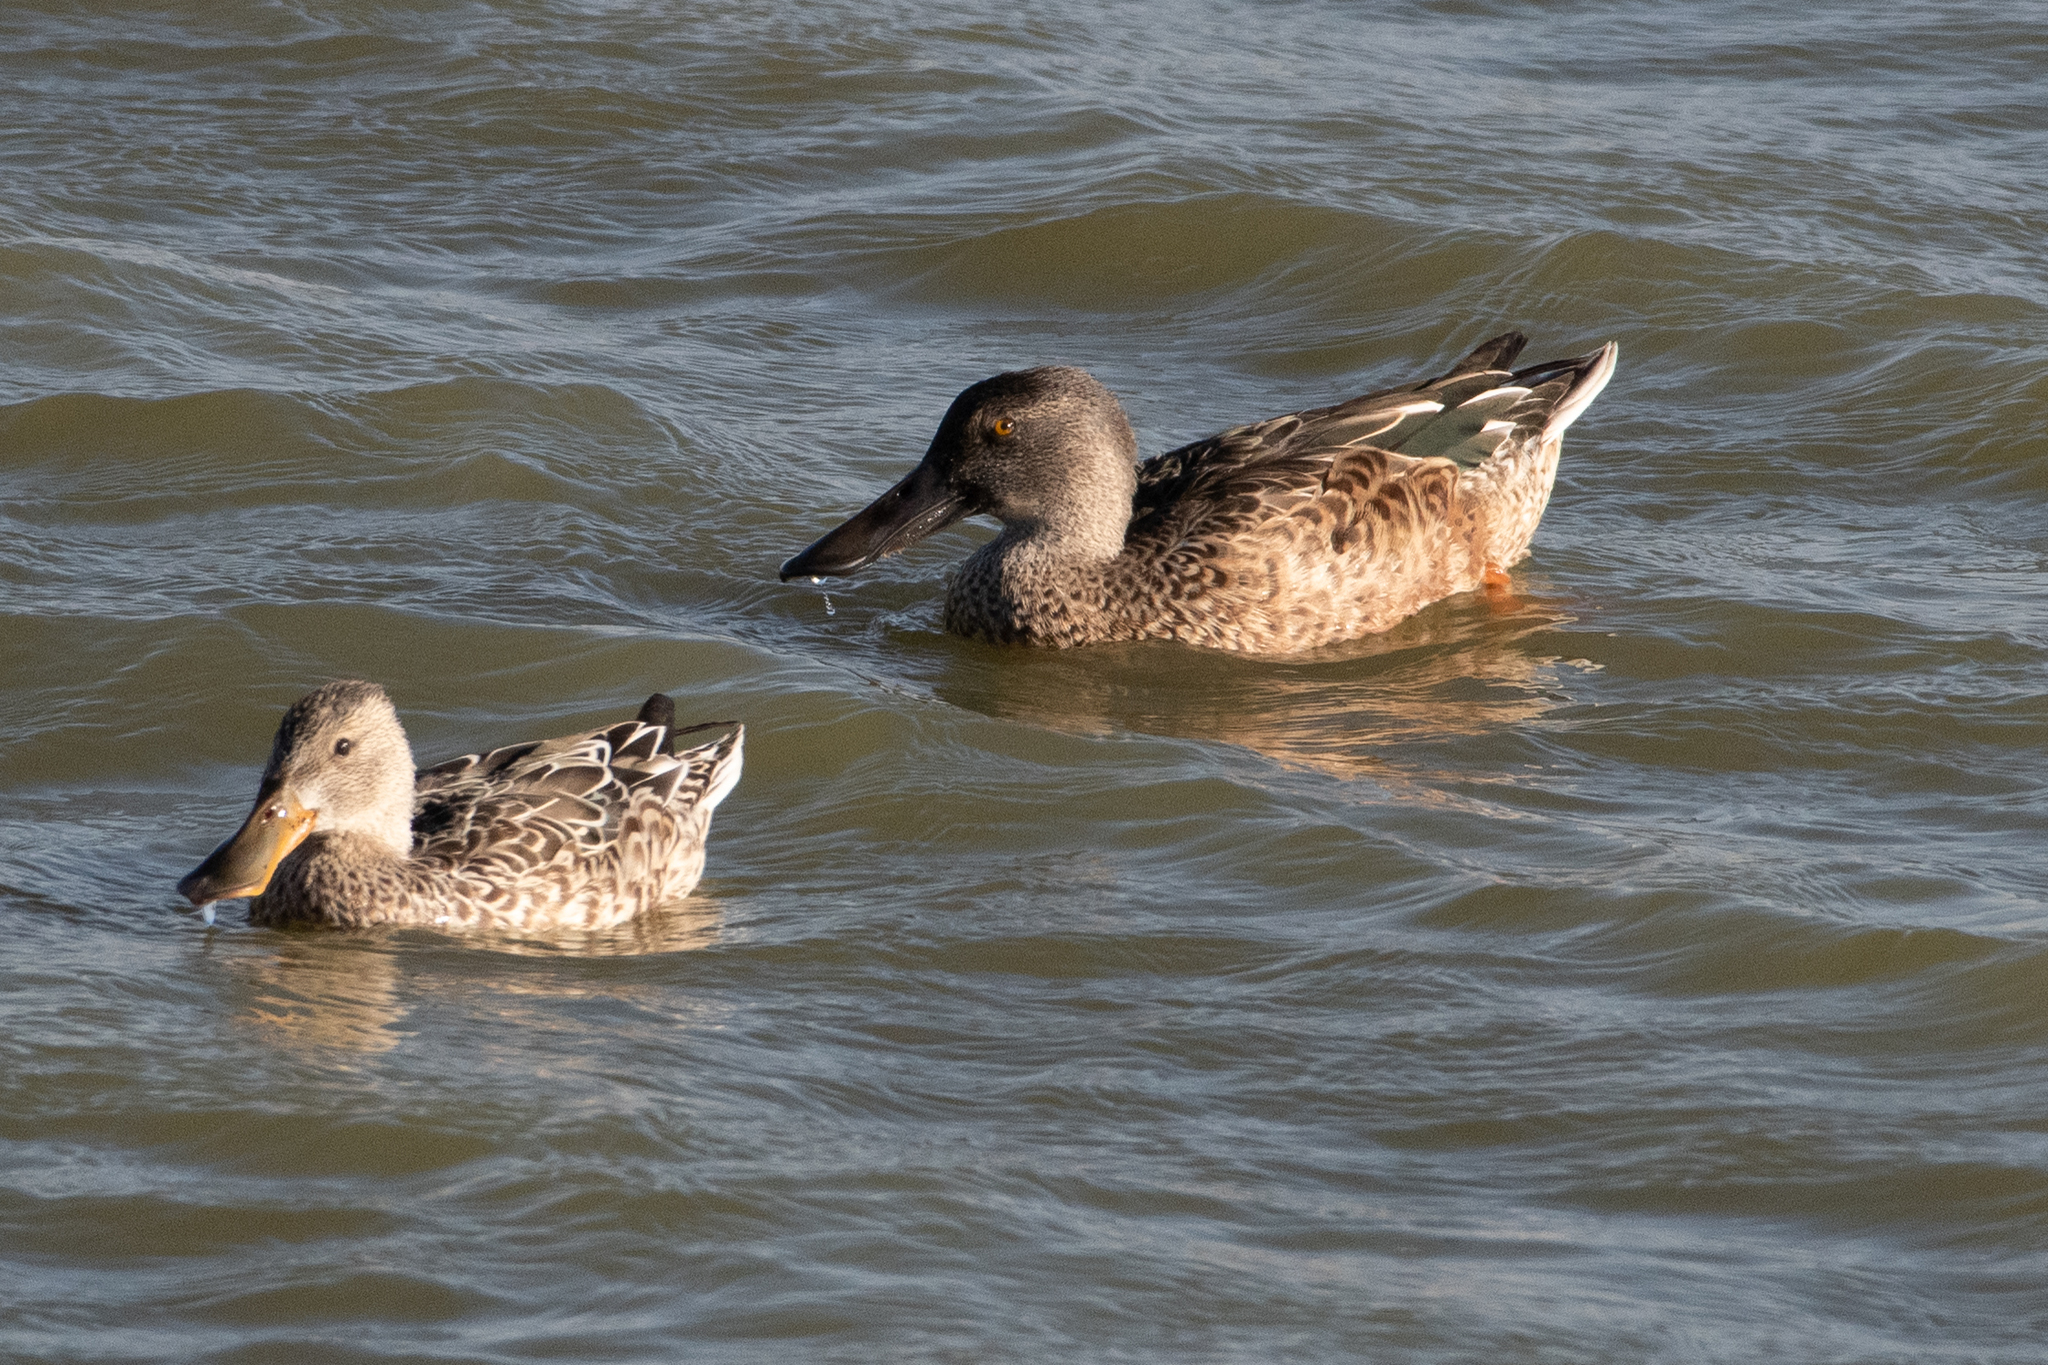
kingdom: Animalia
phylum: Chordata
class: Aves
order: Anseriformes
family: Anatidae
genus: Spatula
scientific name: Spatula clypeata
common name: Northern shoveler
